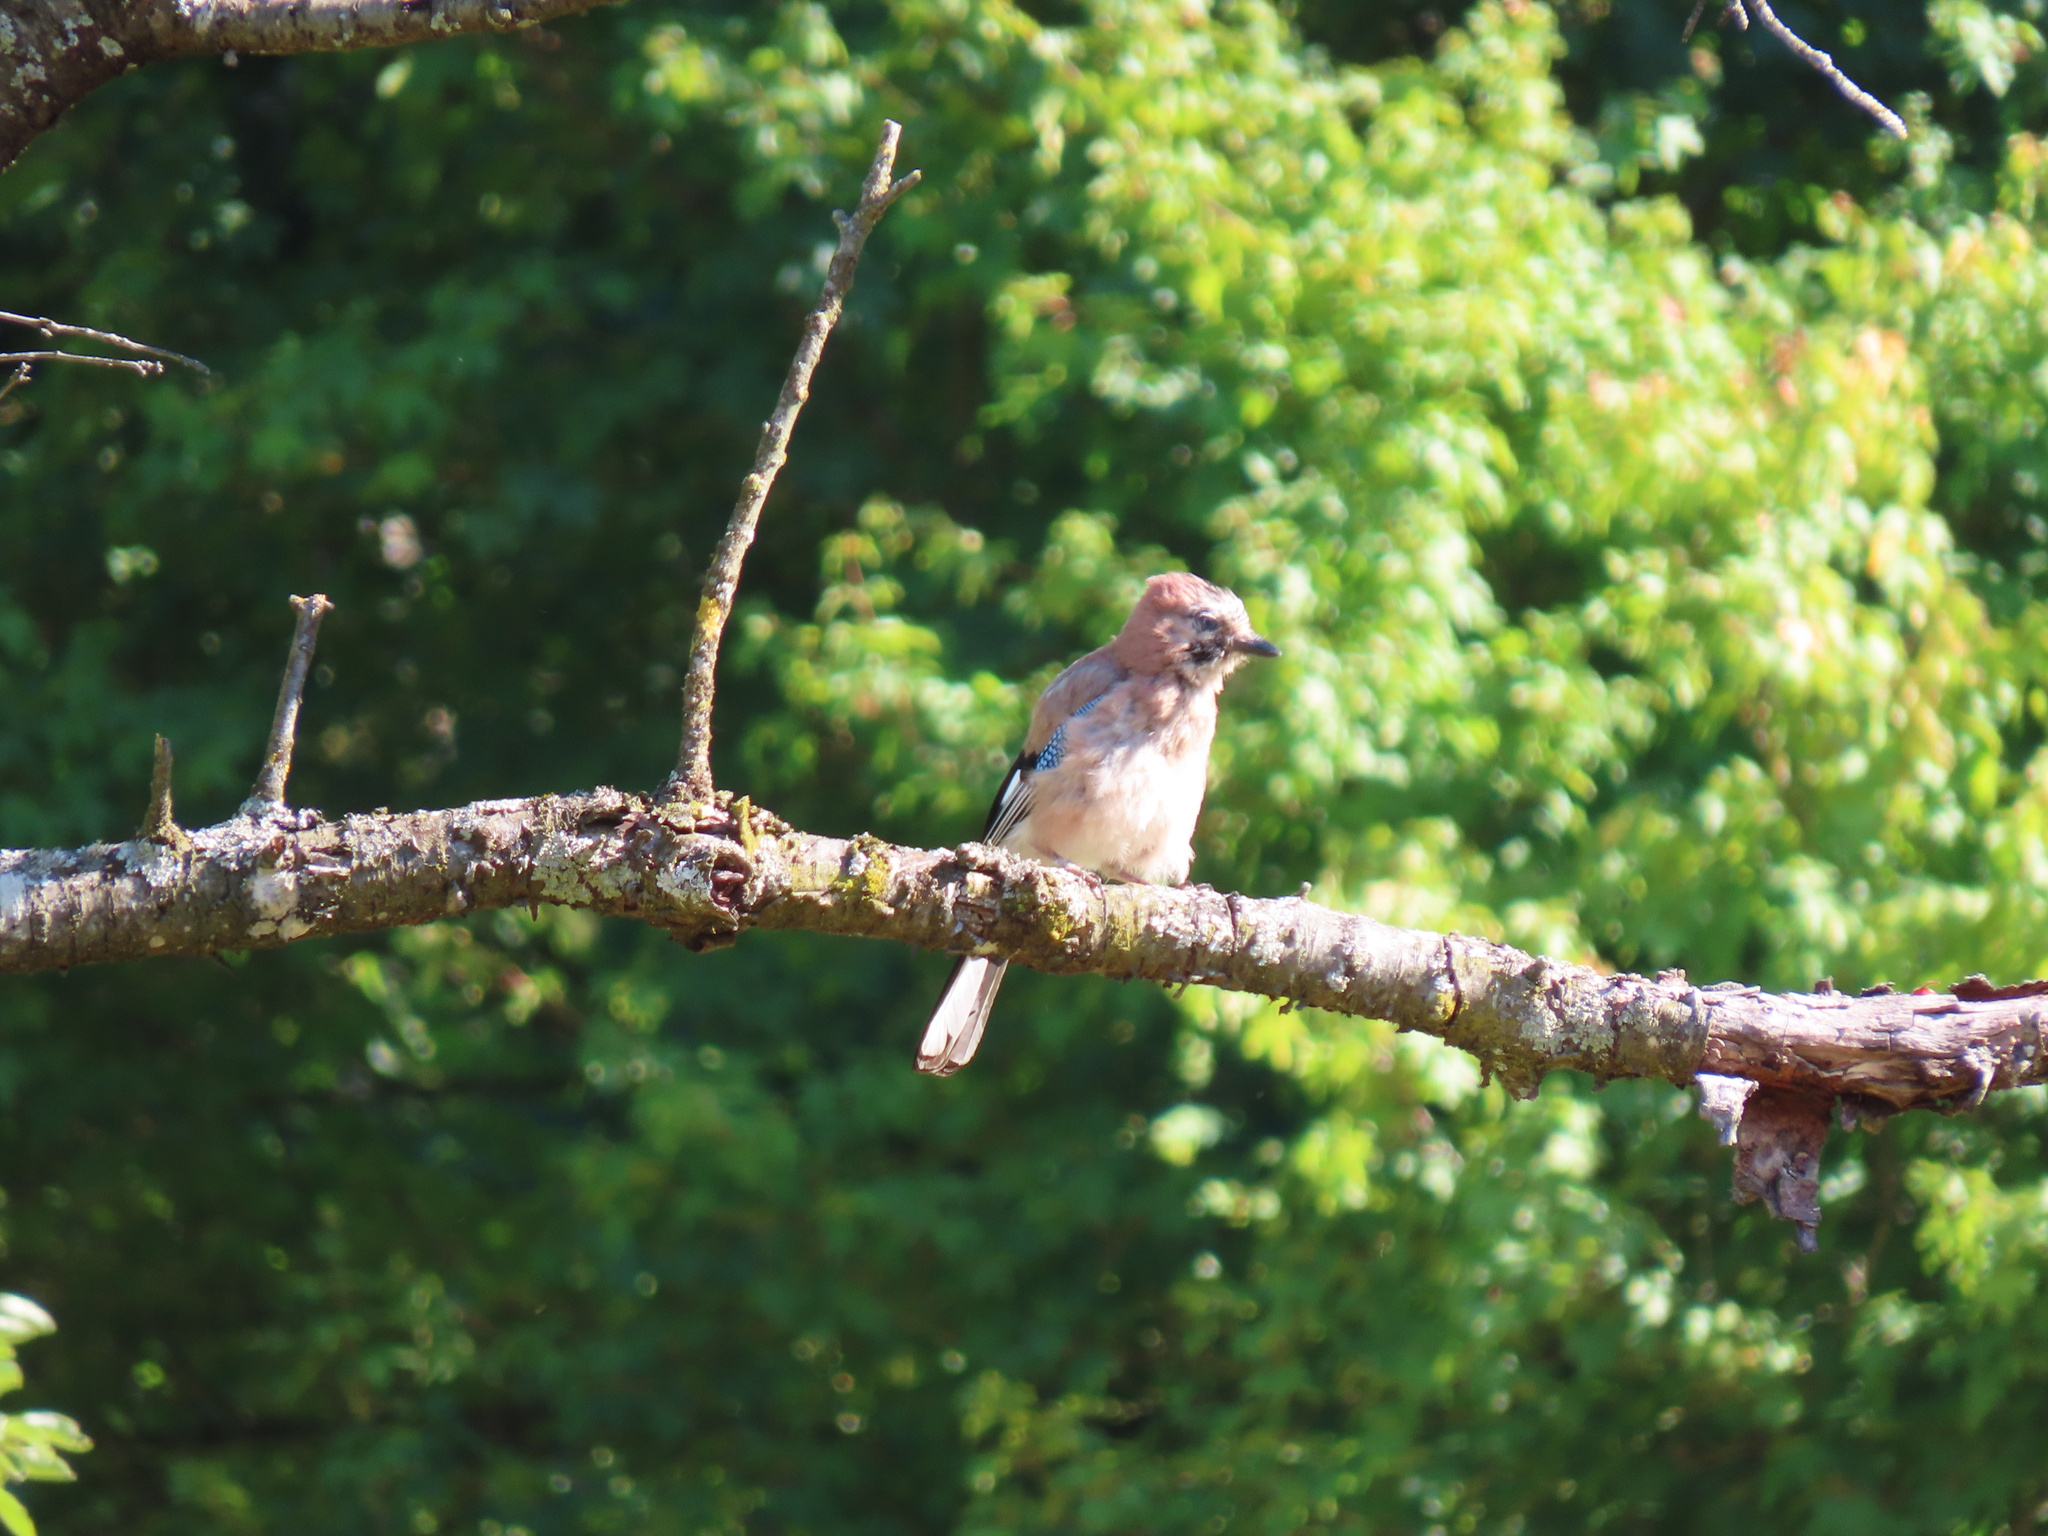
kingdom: Animalia
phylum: Chordata
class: Aves
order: Passeriformes
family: Corvidae
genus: Garrulus
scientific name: Garrulus glandarius
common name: Eurasian jay
